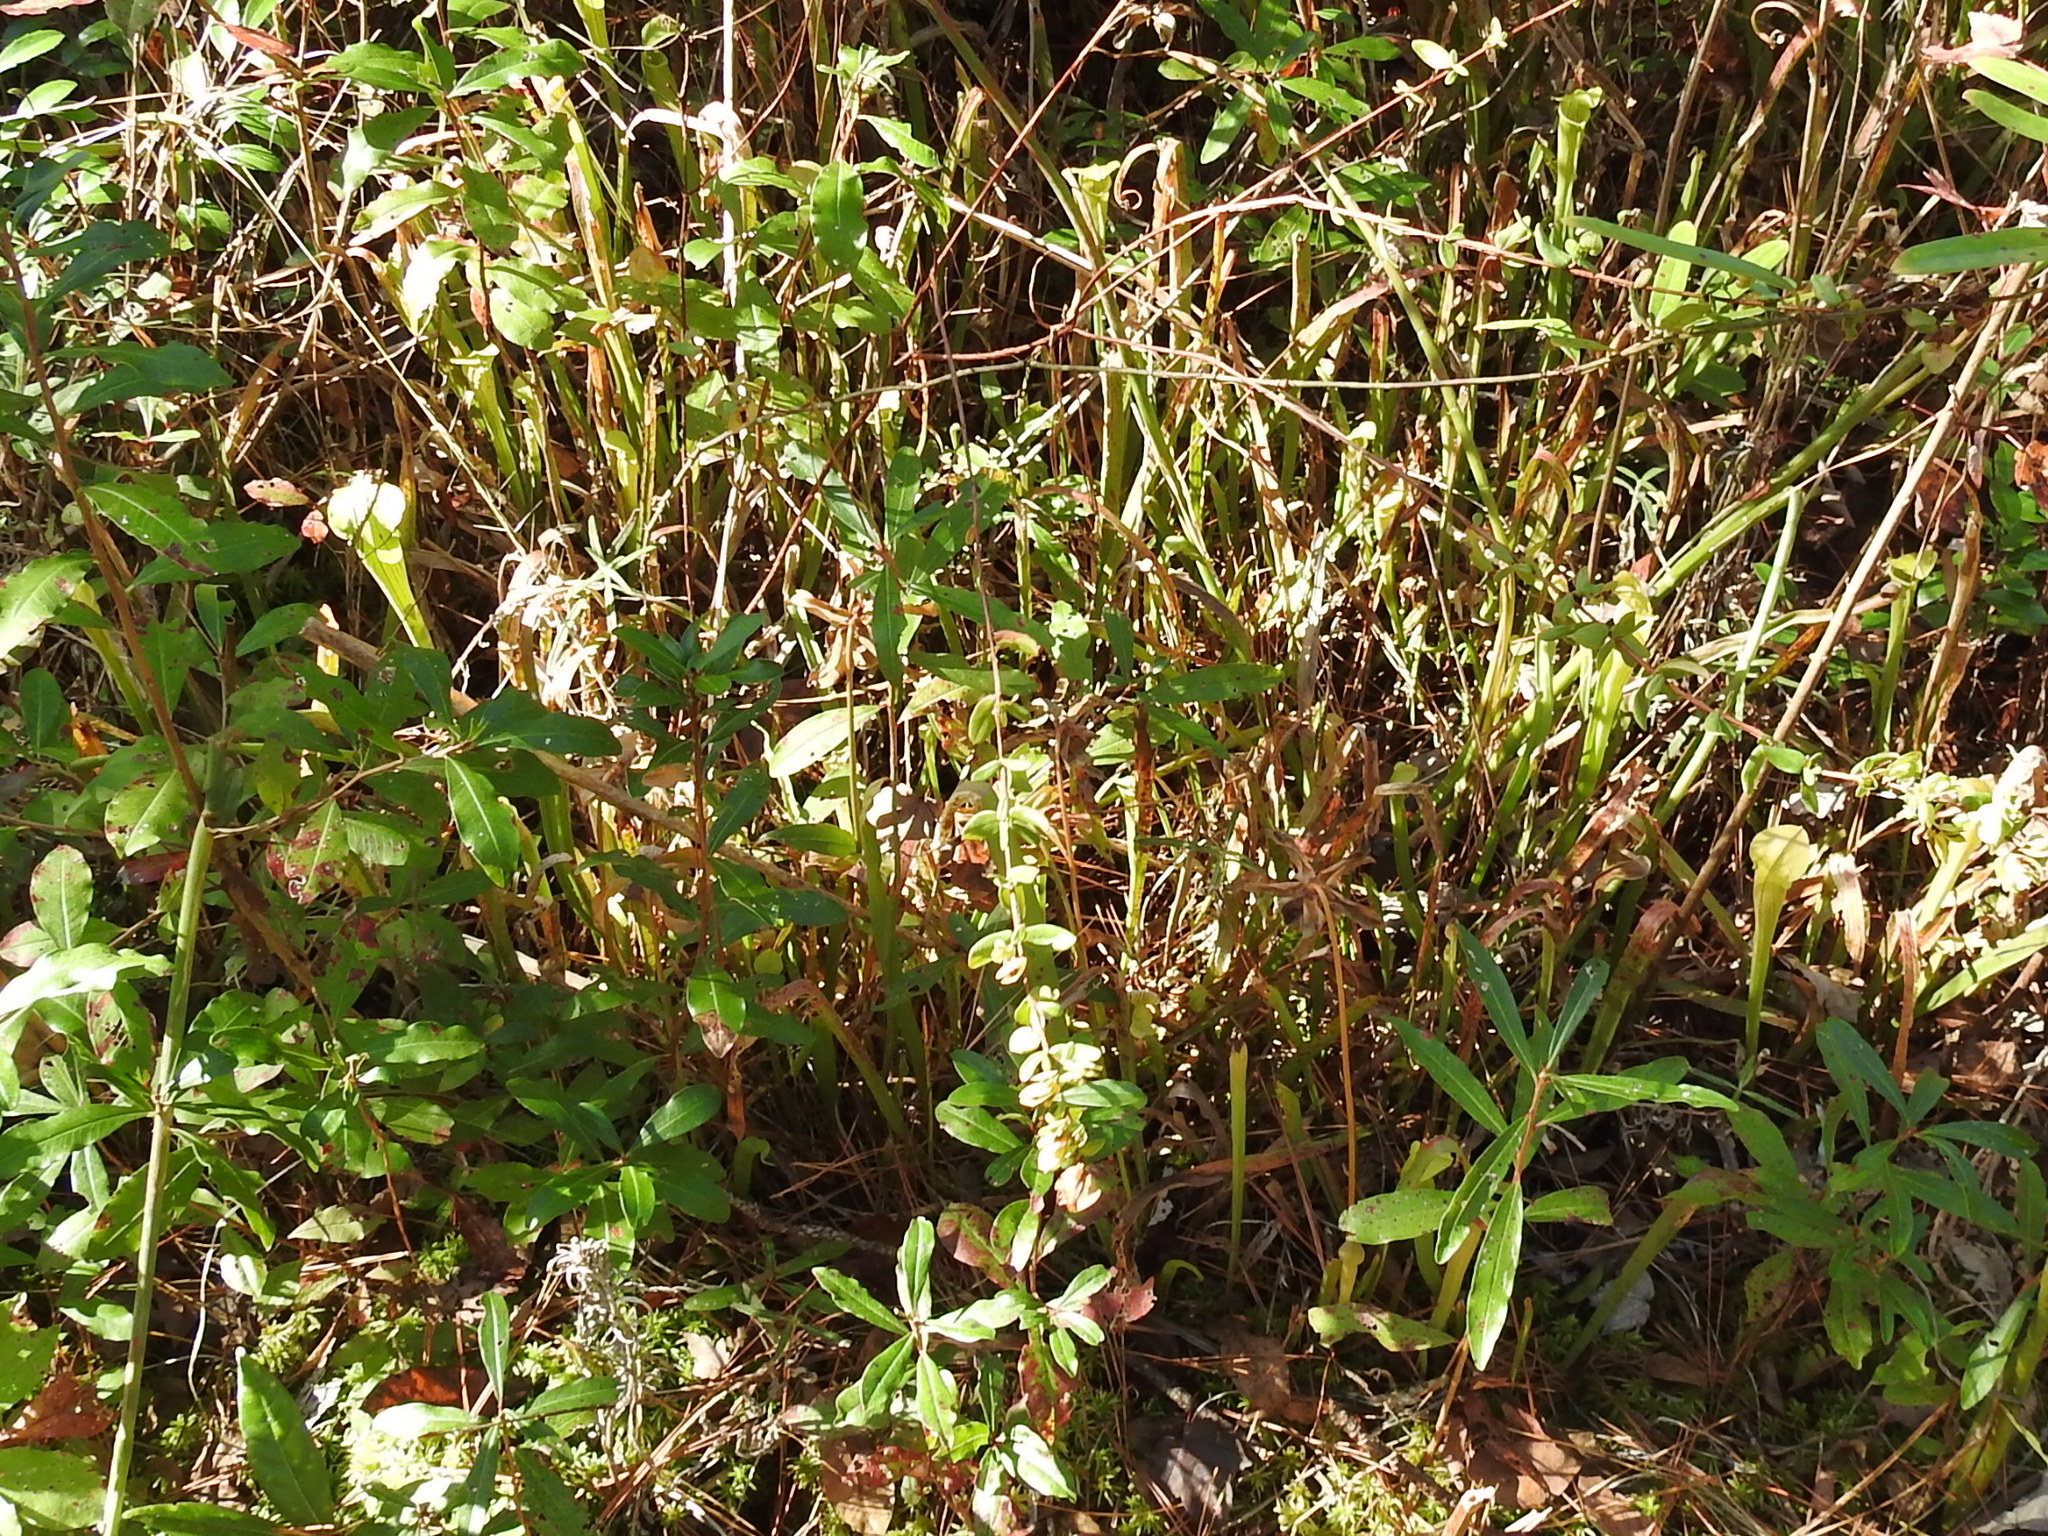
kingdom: Plantae
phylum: Tracheophyta
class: Magnoliopsida
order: Malpighiales
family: Hypericaceae
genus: Hypericum
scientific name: Hypericum crux-andreae
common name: St.-peter's-wort
